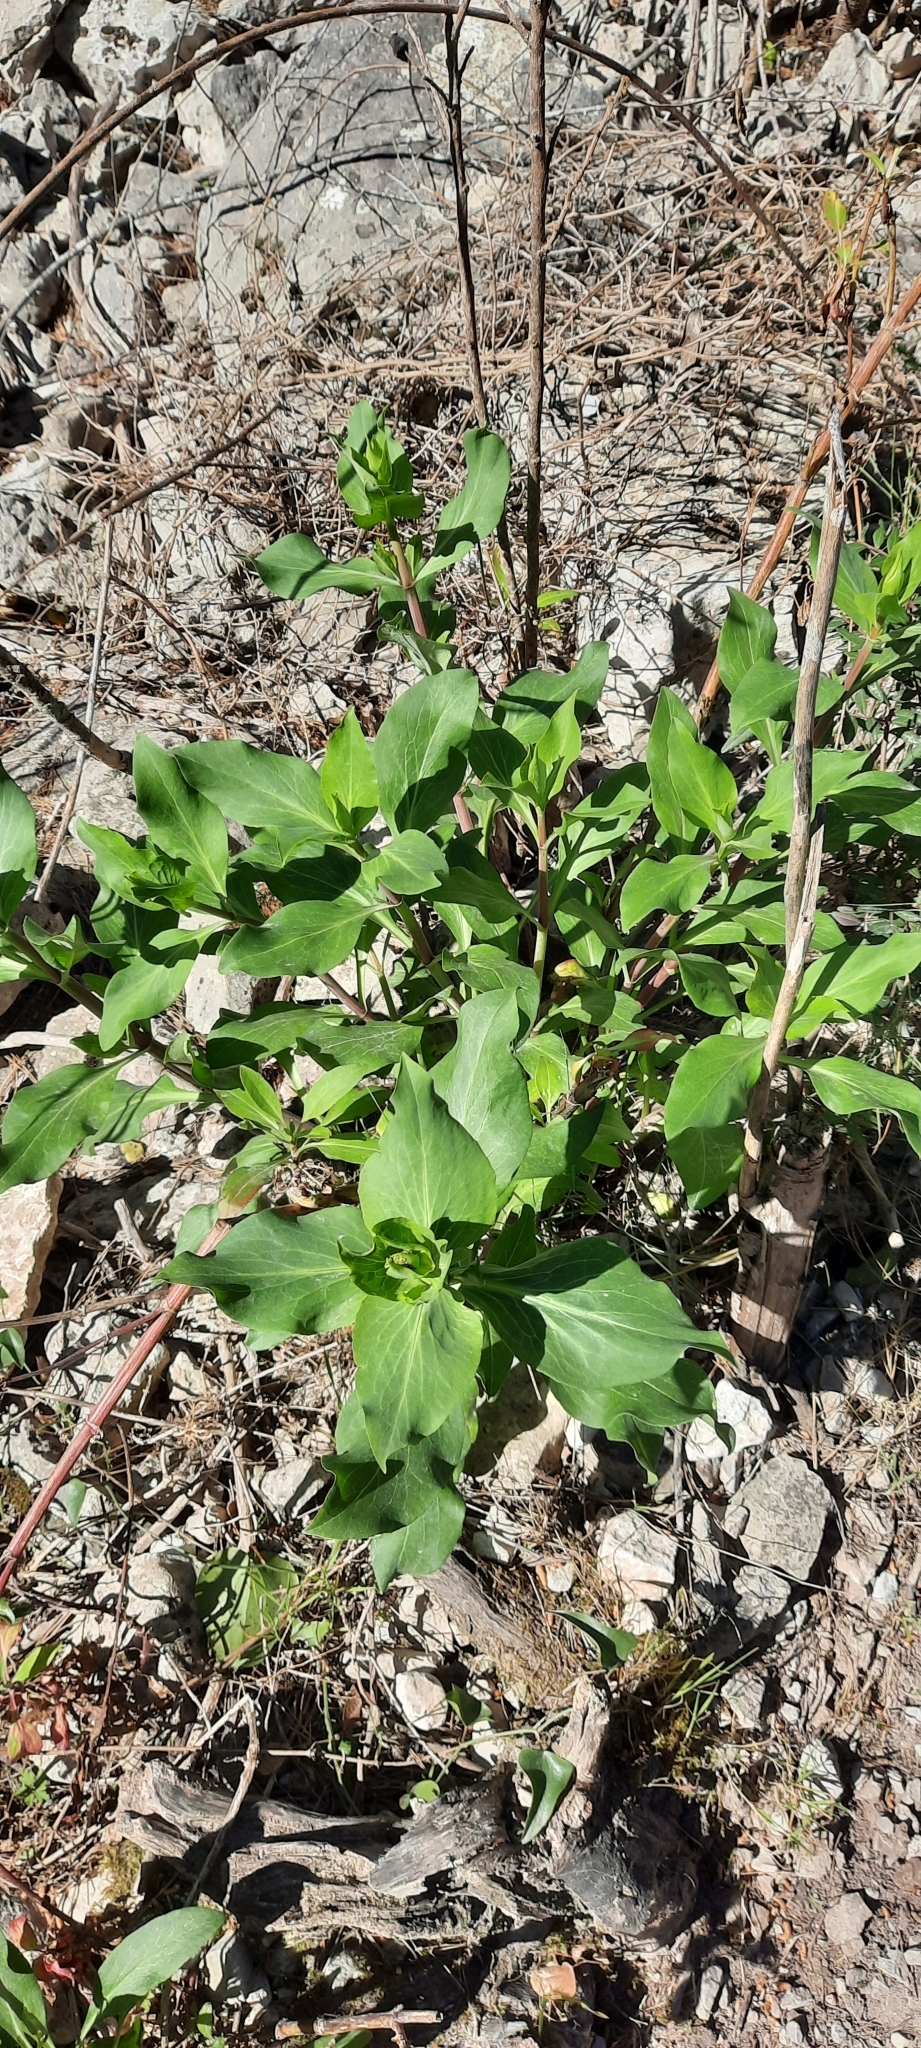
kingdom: Plantae
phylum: Tracheophyta
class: Magnoliopsida
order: Dipsacales
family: Caprifoliaceae
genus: Centranthus
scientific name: Centranthus ruber
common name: Red valerian
